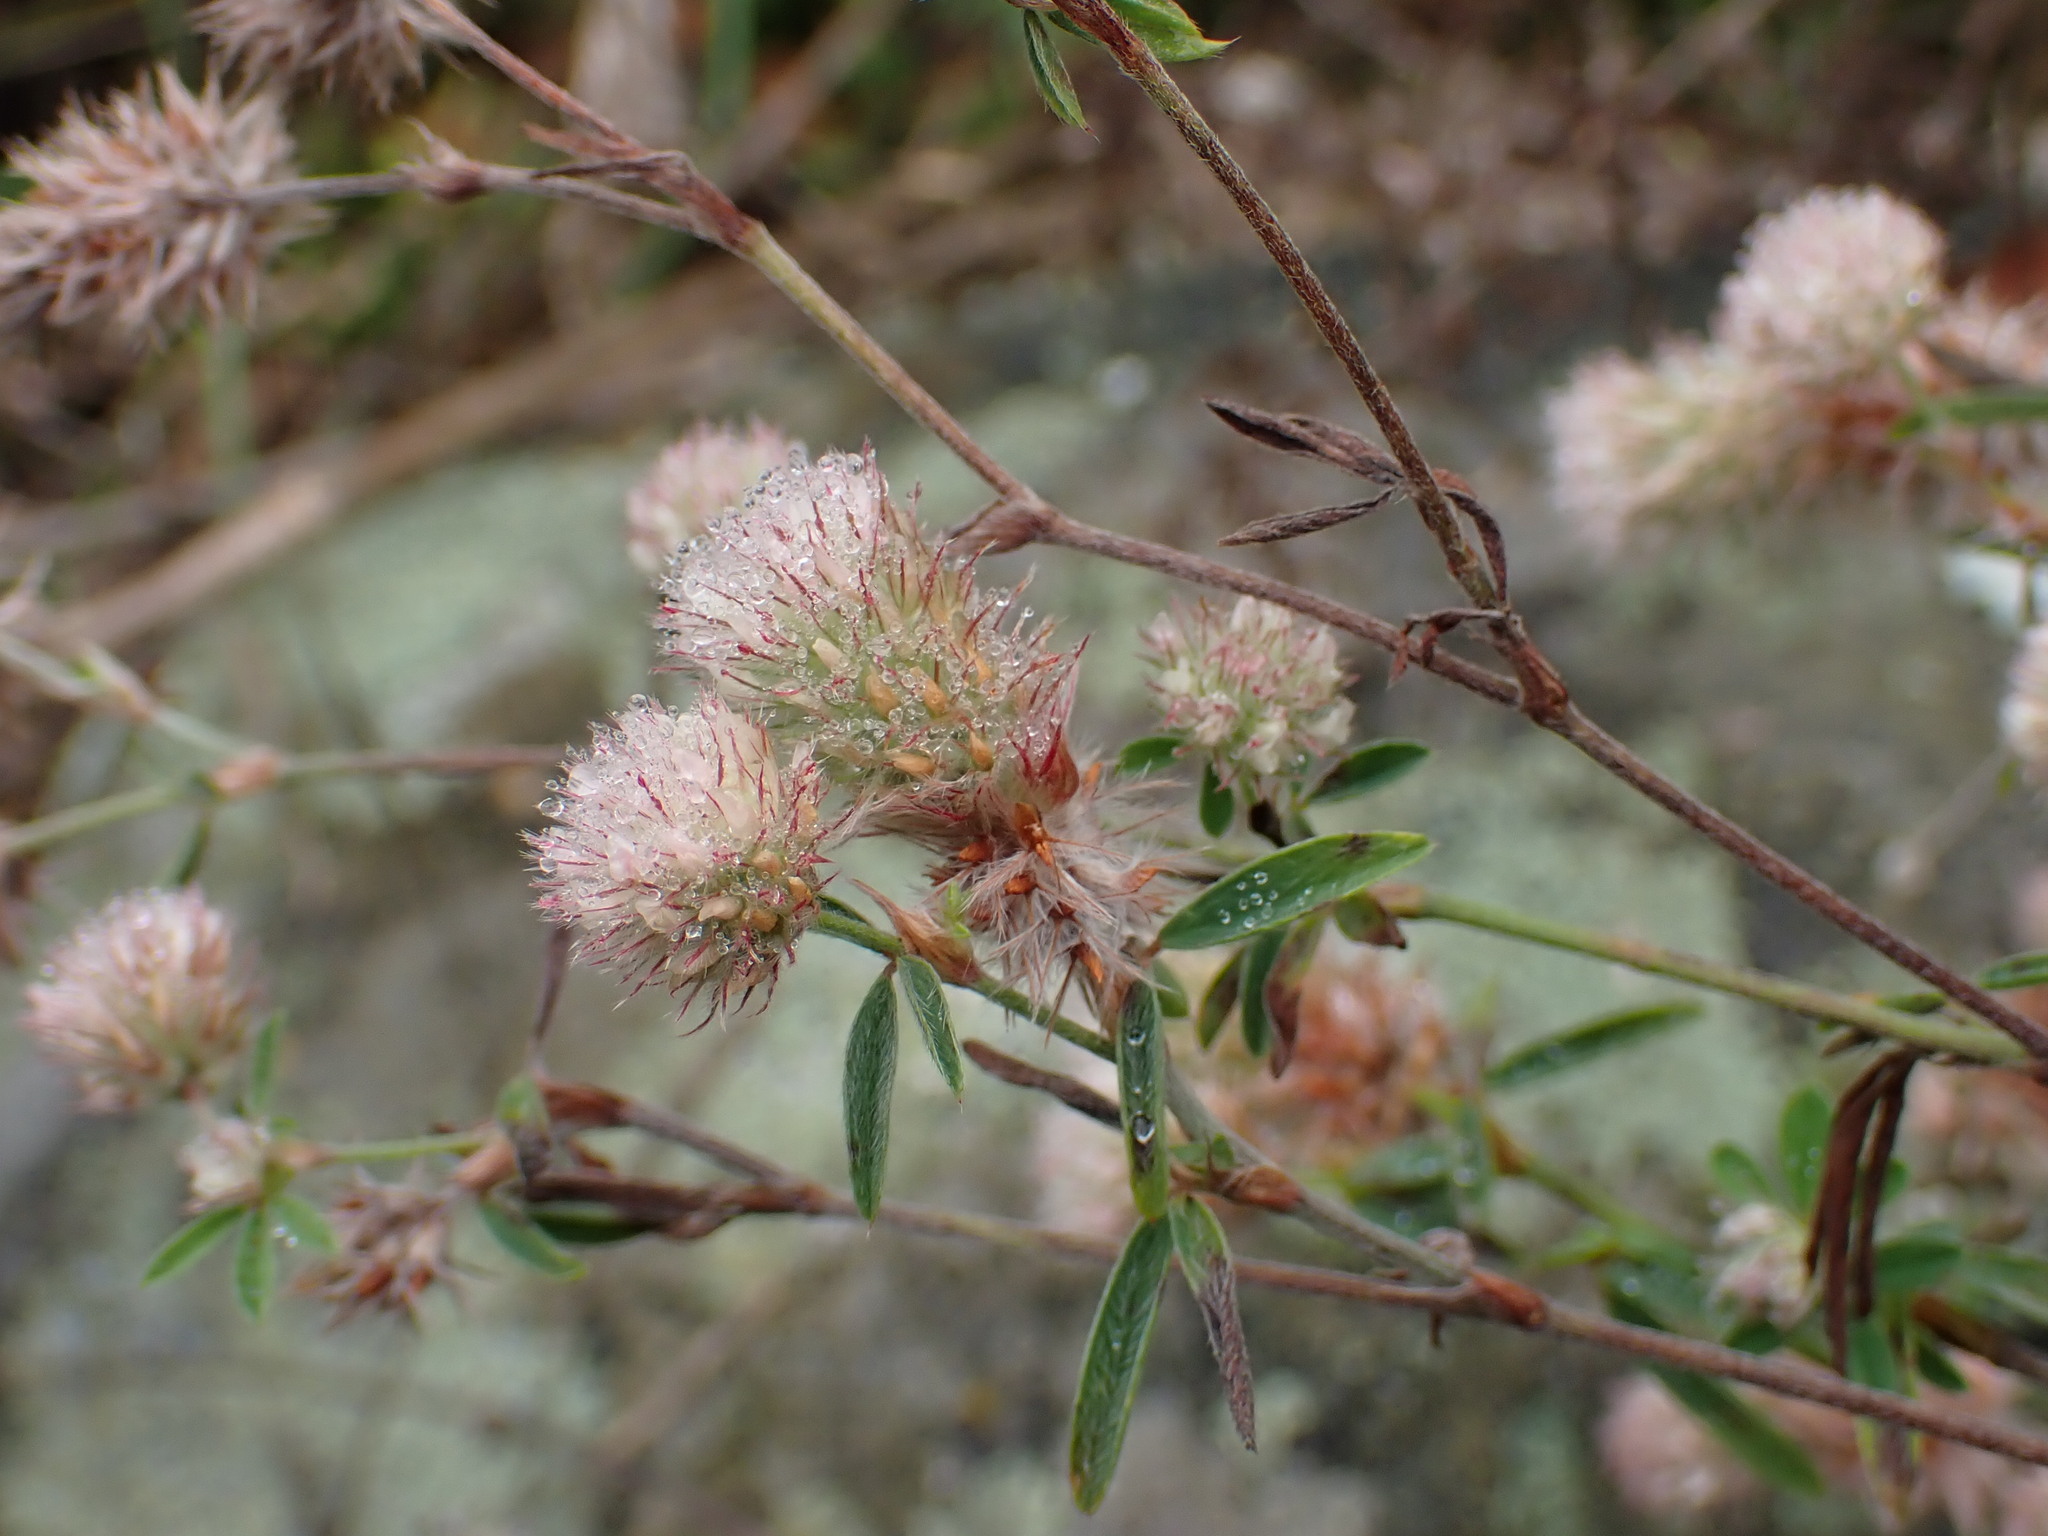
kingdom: Plantae
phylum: Tracheophyta
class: Magnoliopsida
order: Fabales
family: Fabaceae
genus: Trifolium
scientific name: Trifolium arvense
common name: Hare's-foot clover
